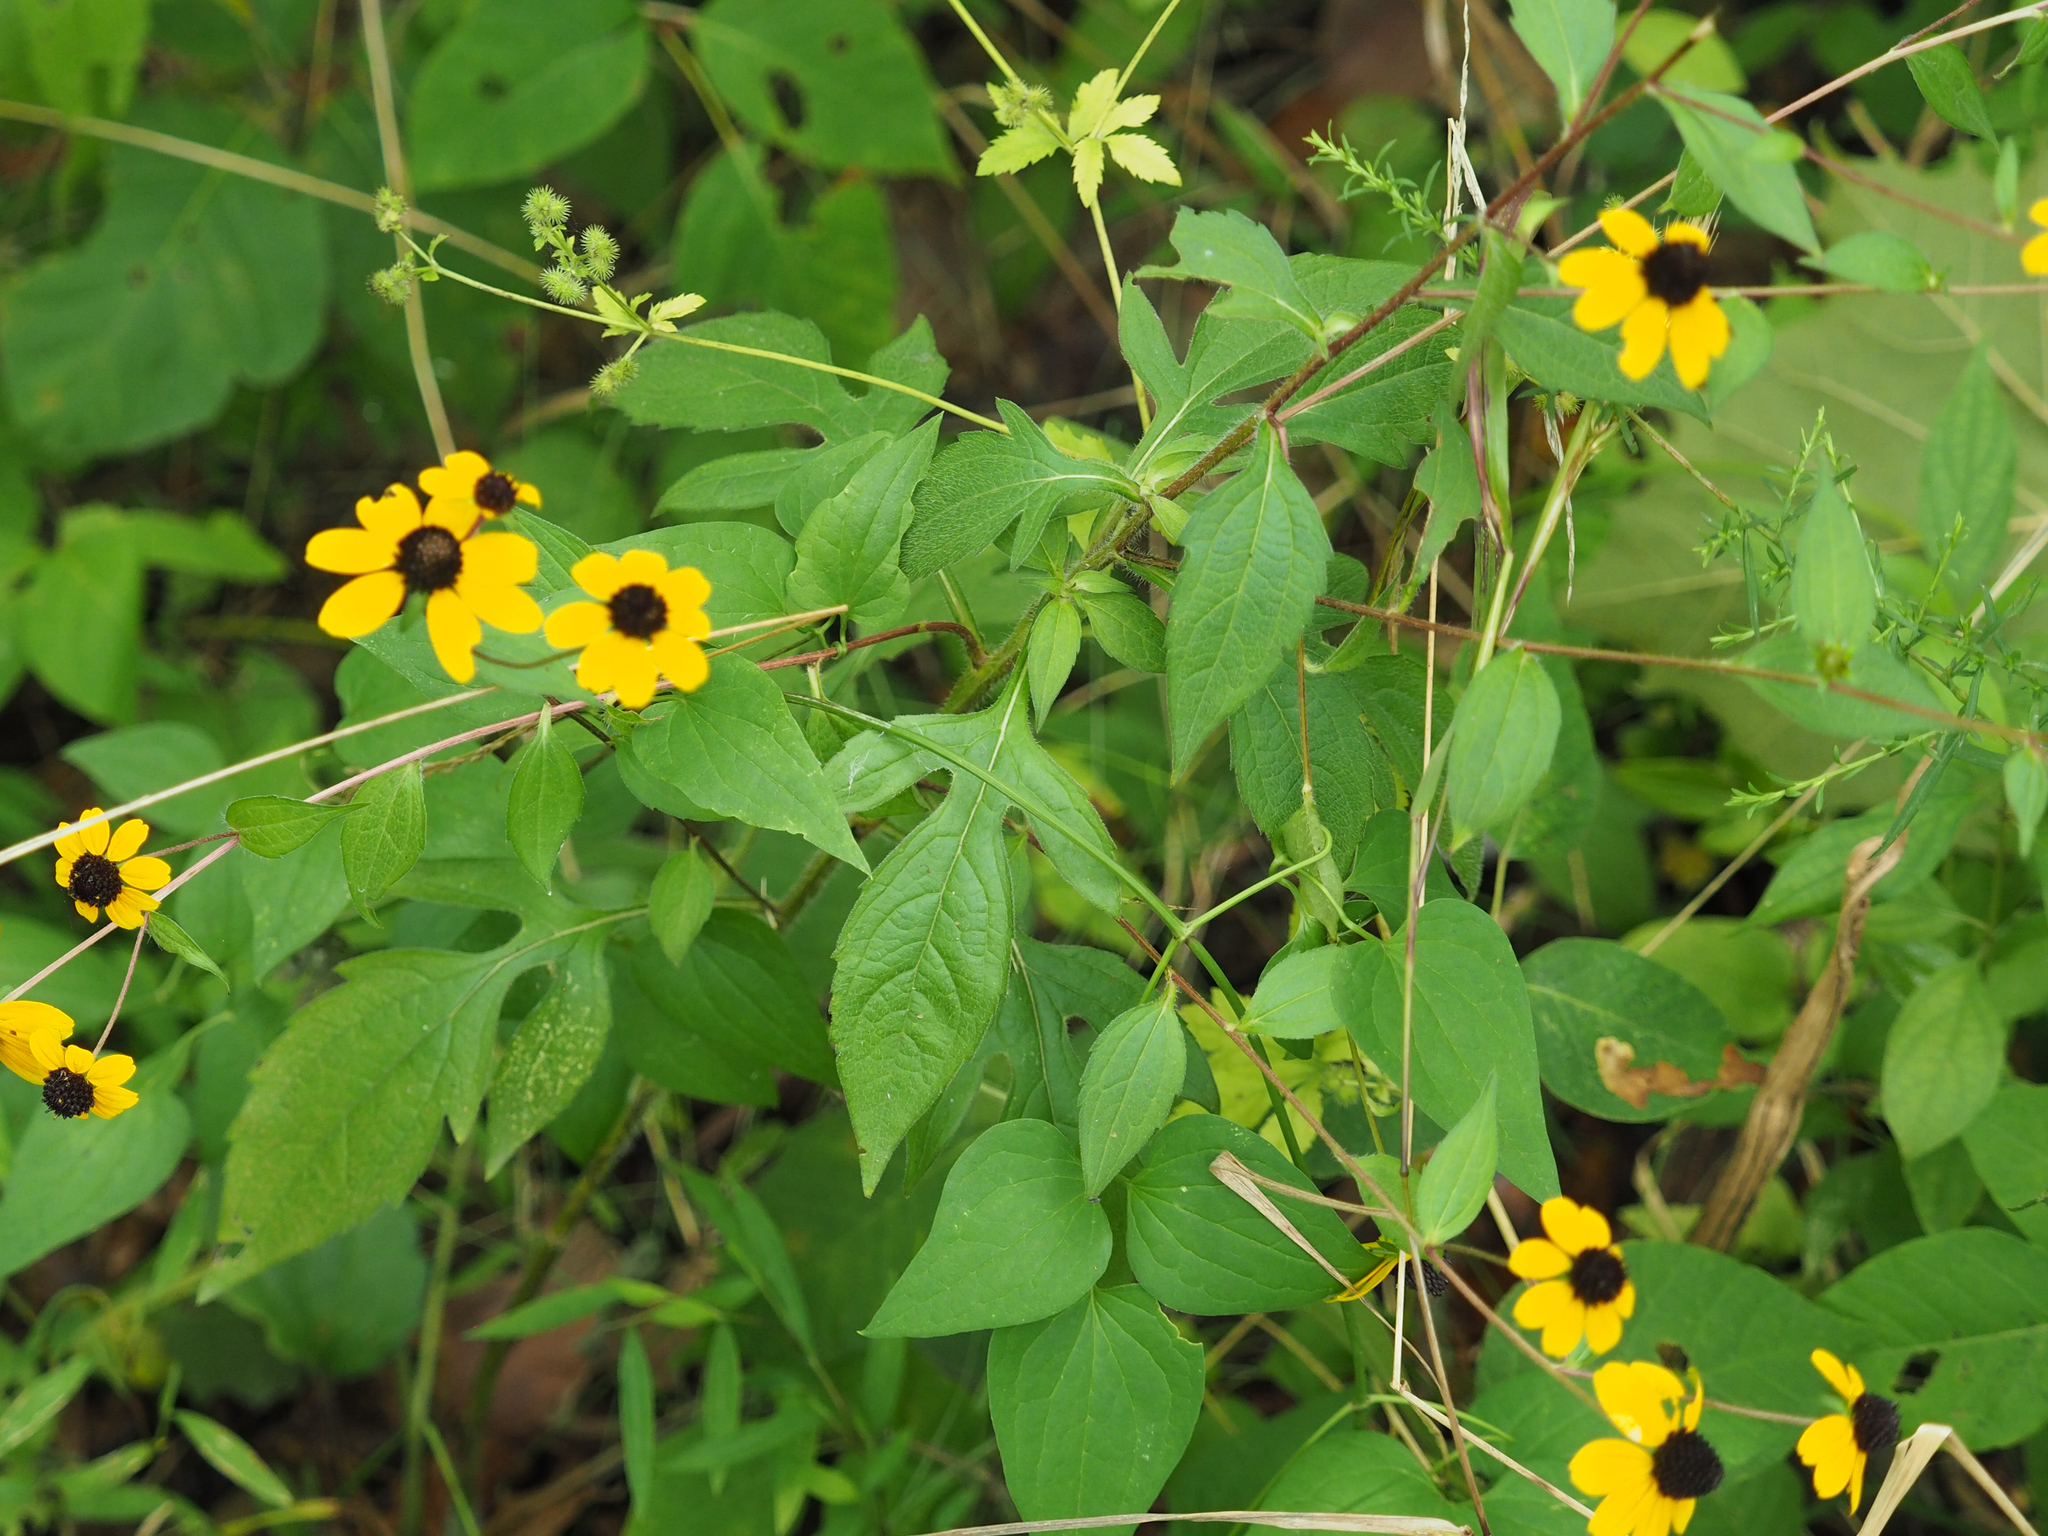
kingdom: Plantae
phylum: Tracheophyta
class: Magnoliopsida
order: Asterales
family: Asteraceae
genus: Rudbeckia
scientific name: Rudbeckia triloba
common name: Thin-leaved coneflower
